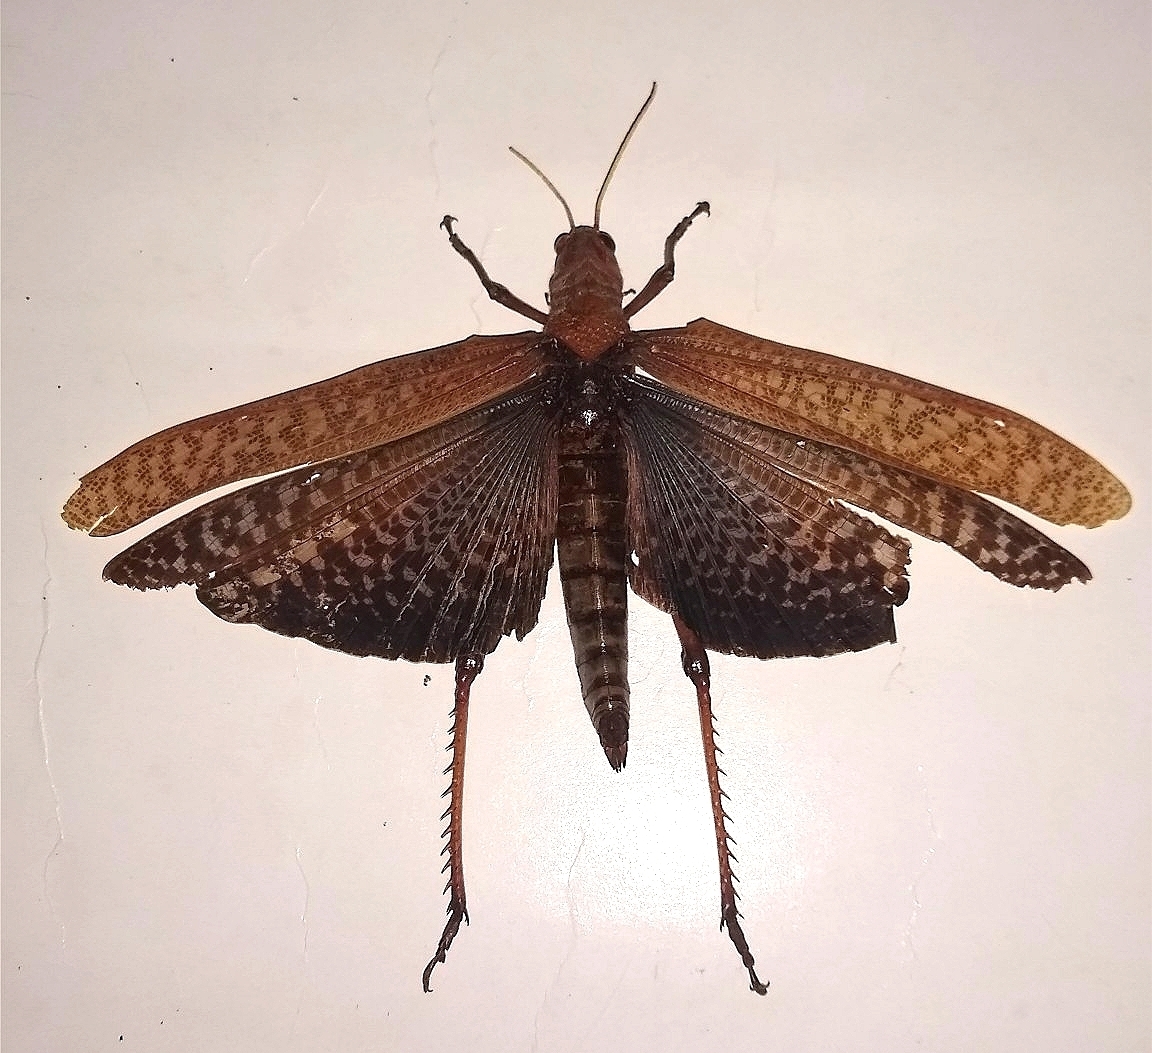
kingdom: Animalia
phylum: Arthropoda
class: Insecta
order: Orthoptera
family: Romaleidae
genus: Tropidacris
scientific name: Tropidacris collaris
